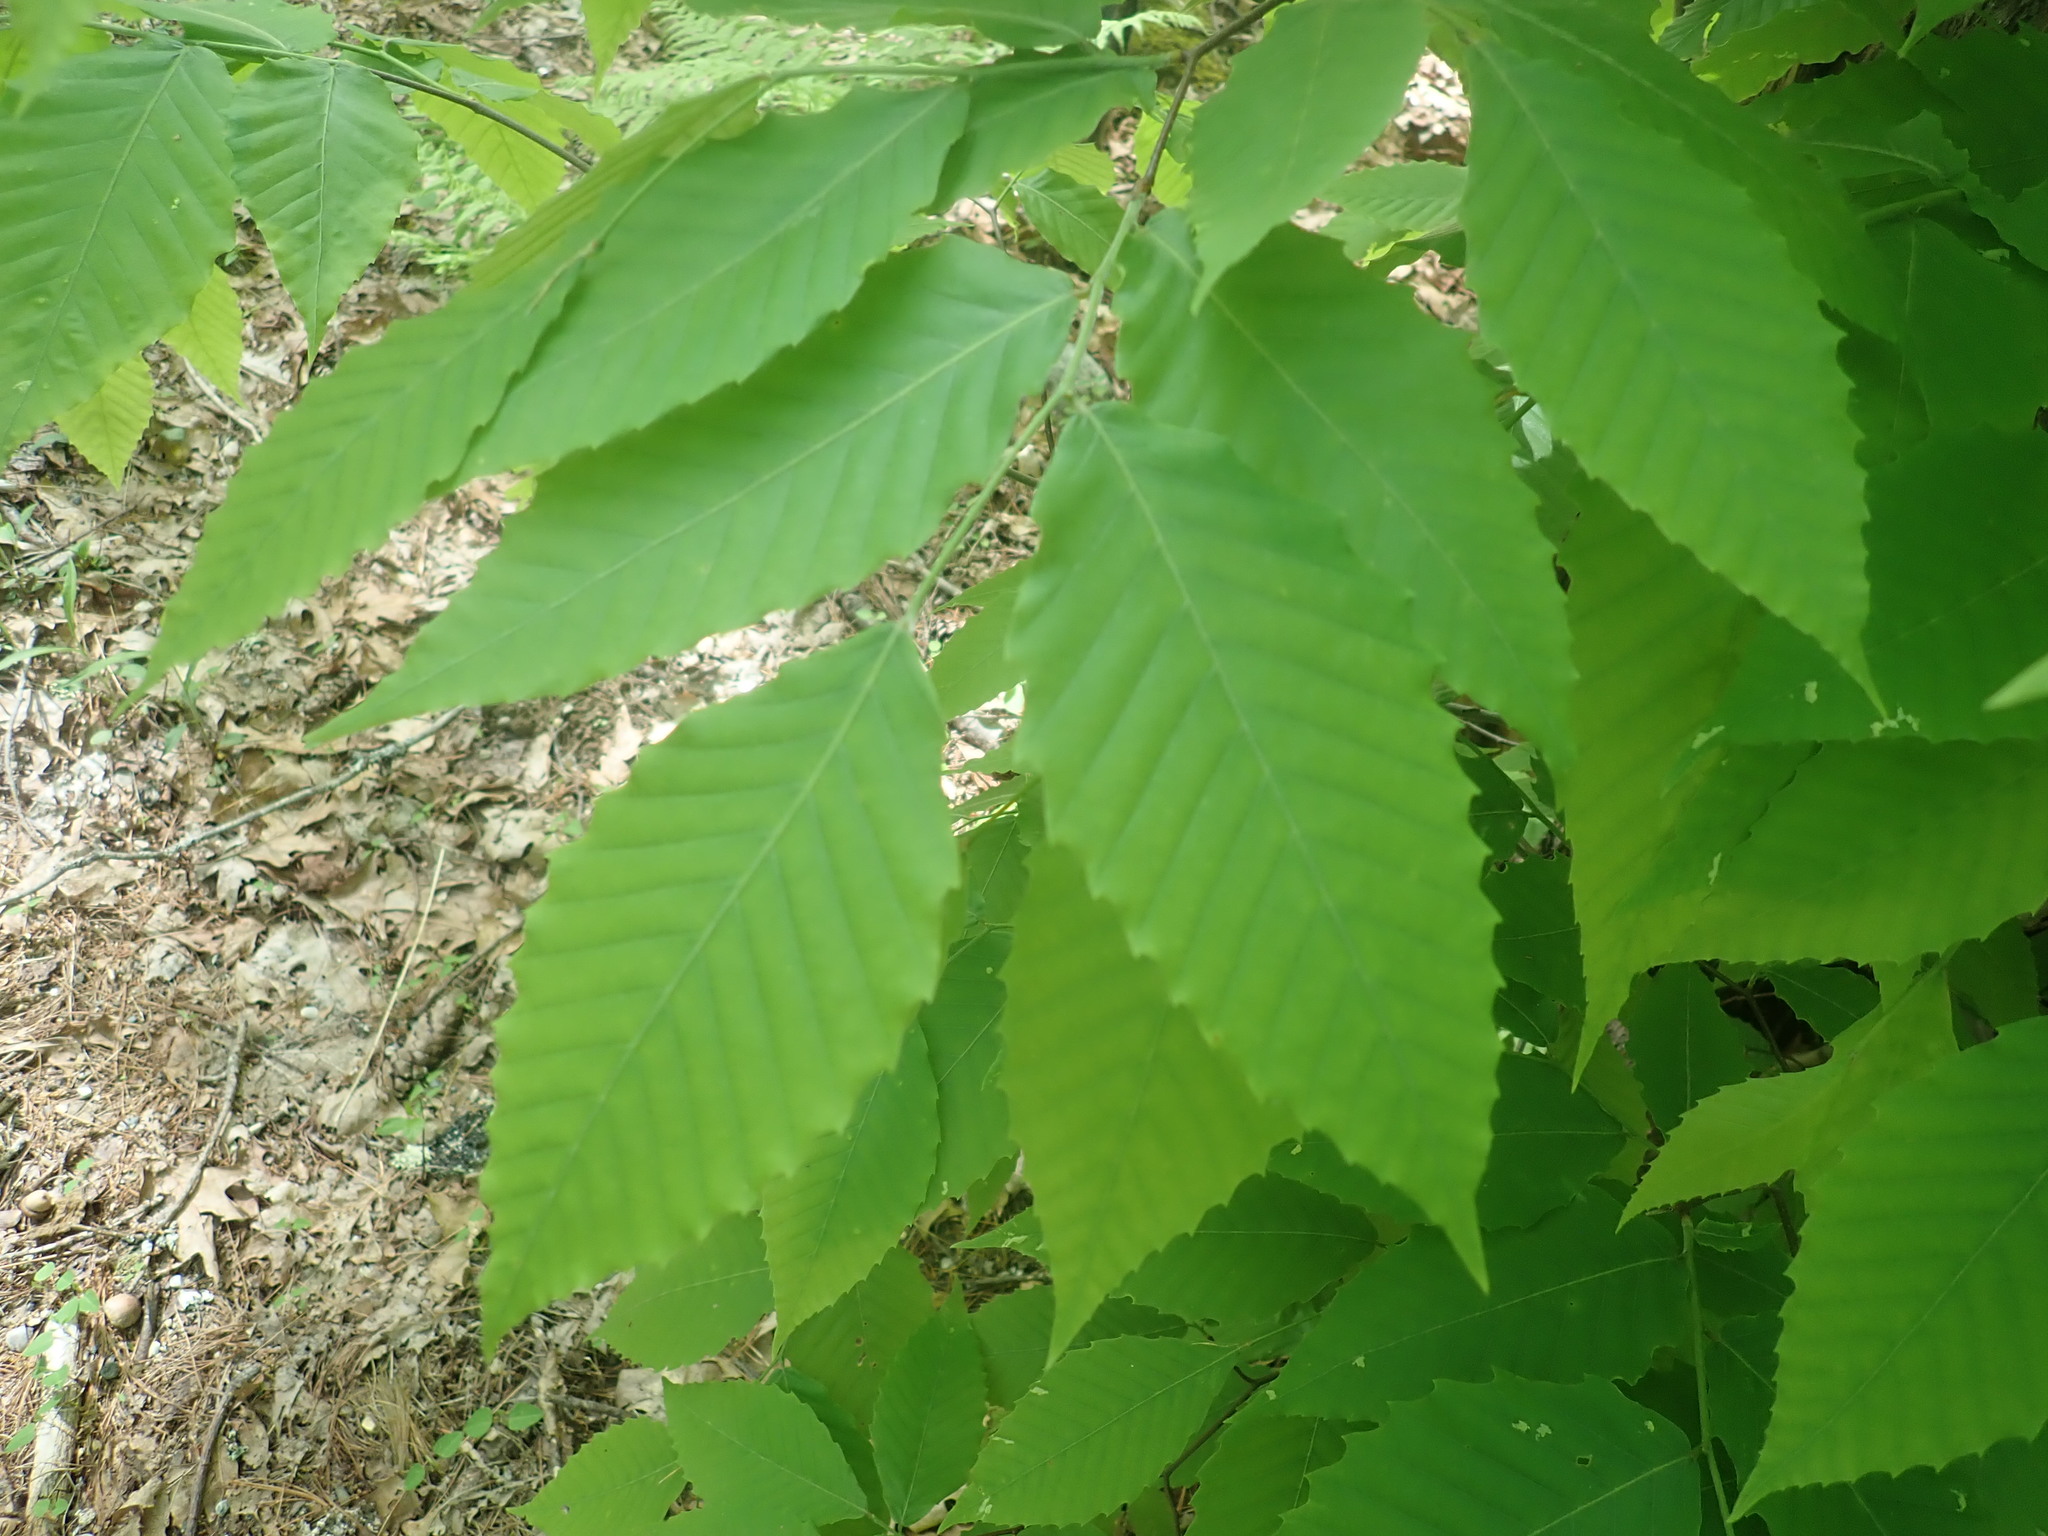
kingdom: Plantae
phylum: Tracheophyta
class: Magnoliopsida
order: Fagales
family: Fagaceae
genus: Fagus
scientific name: Fagus grandifolia
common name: American beech
